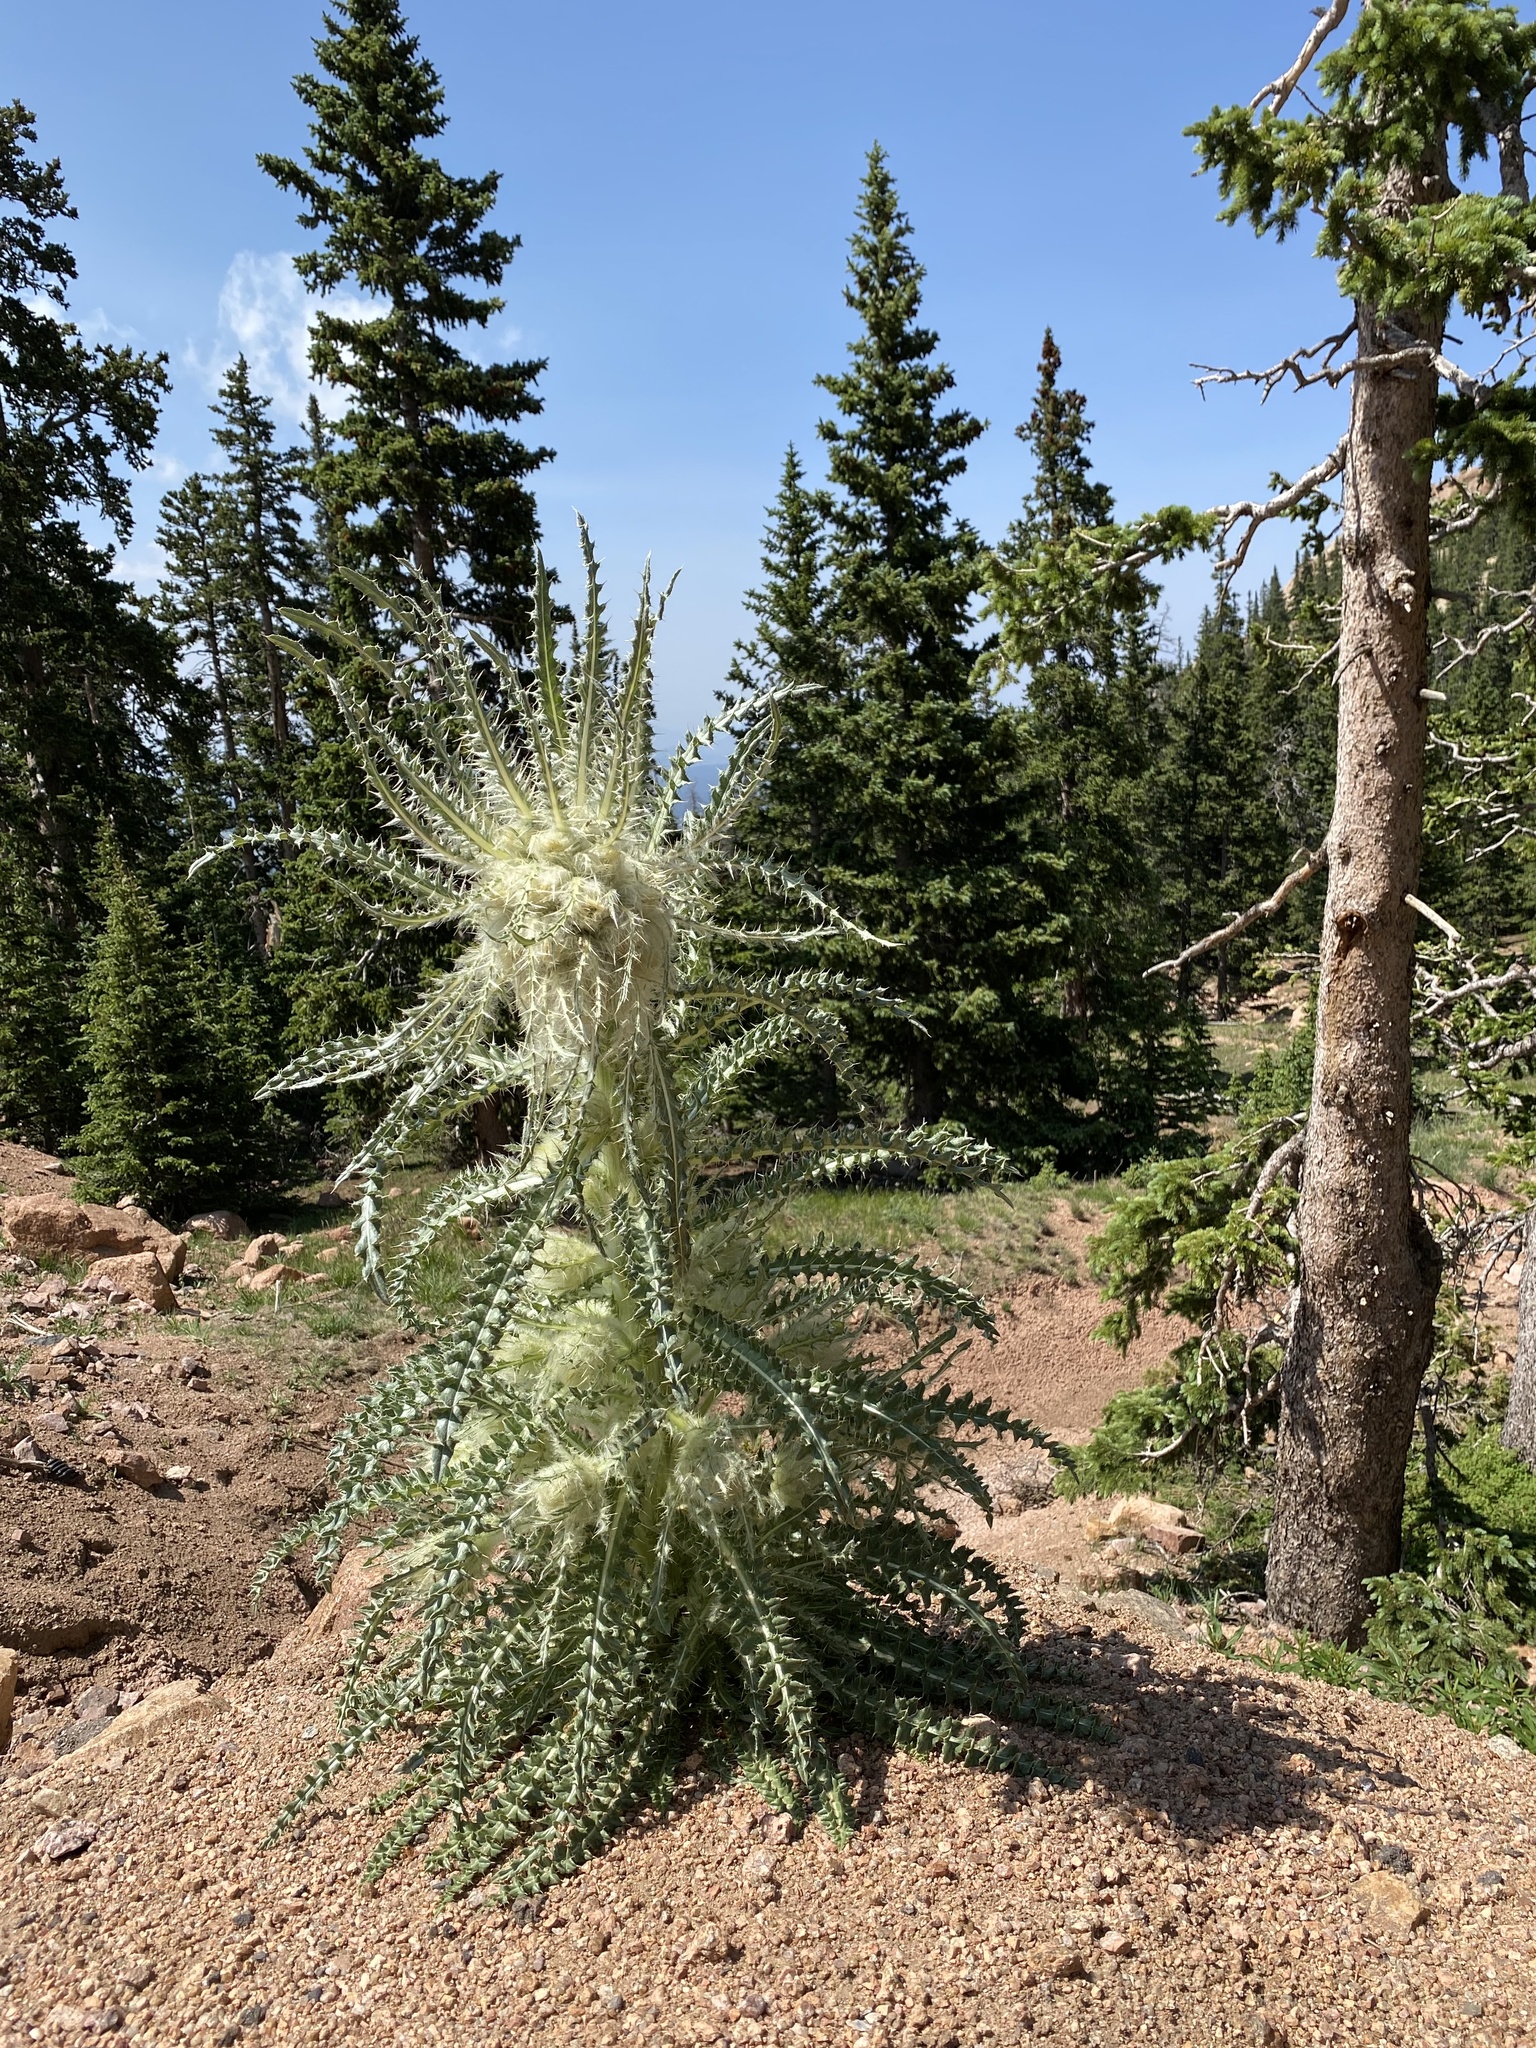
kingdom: Plantae
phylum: Tracheophyta
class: Magnoliopsida
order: Asterales
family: Asteraceae
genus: Cirsium
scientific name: Cirsium scopulorum
